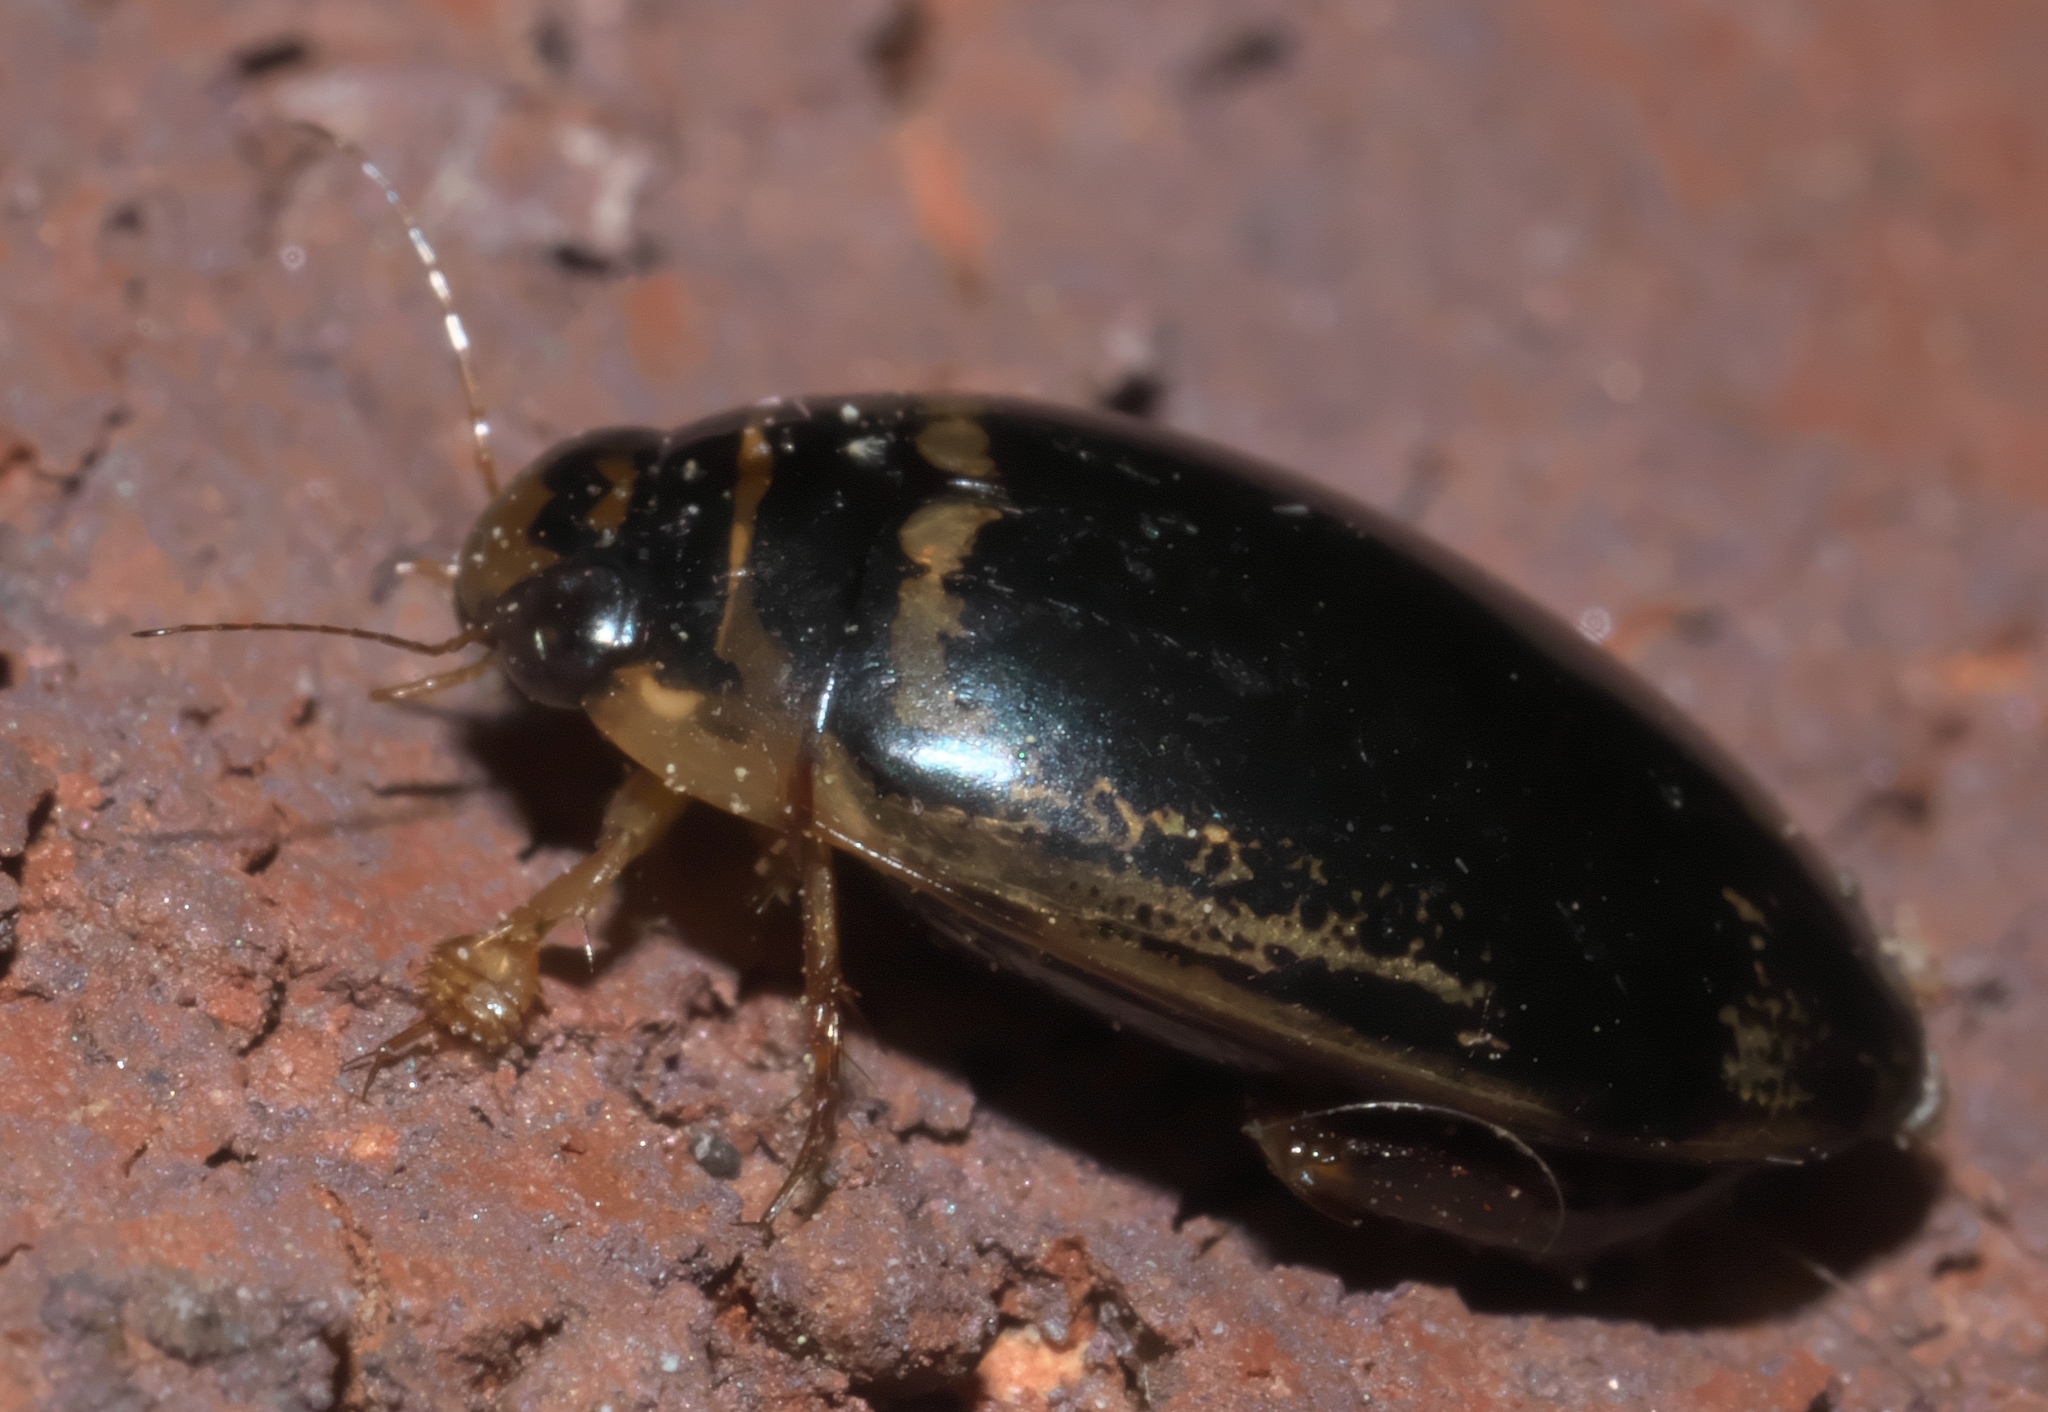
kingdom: Animalia
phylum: Arthropoda
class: Insecta
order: Coleoptera
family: Dytiscidae
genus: Thermonectus
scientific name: Thermonectus basillaris
